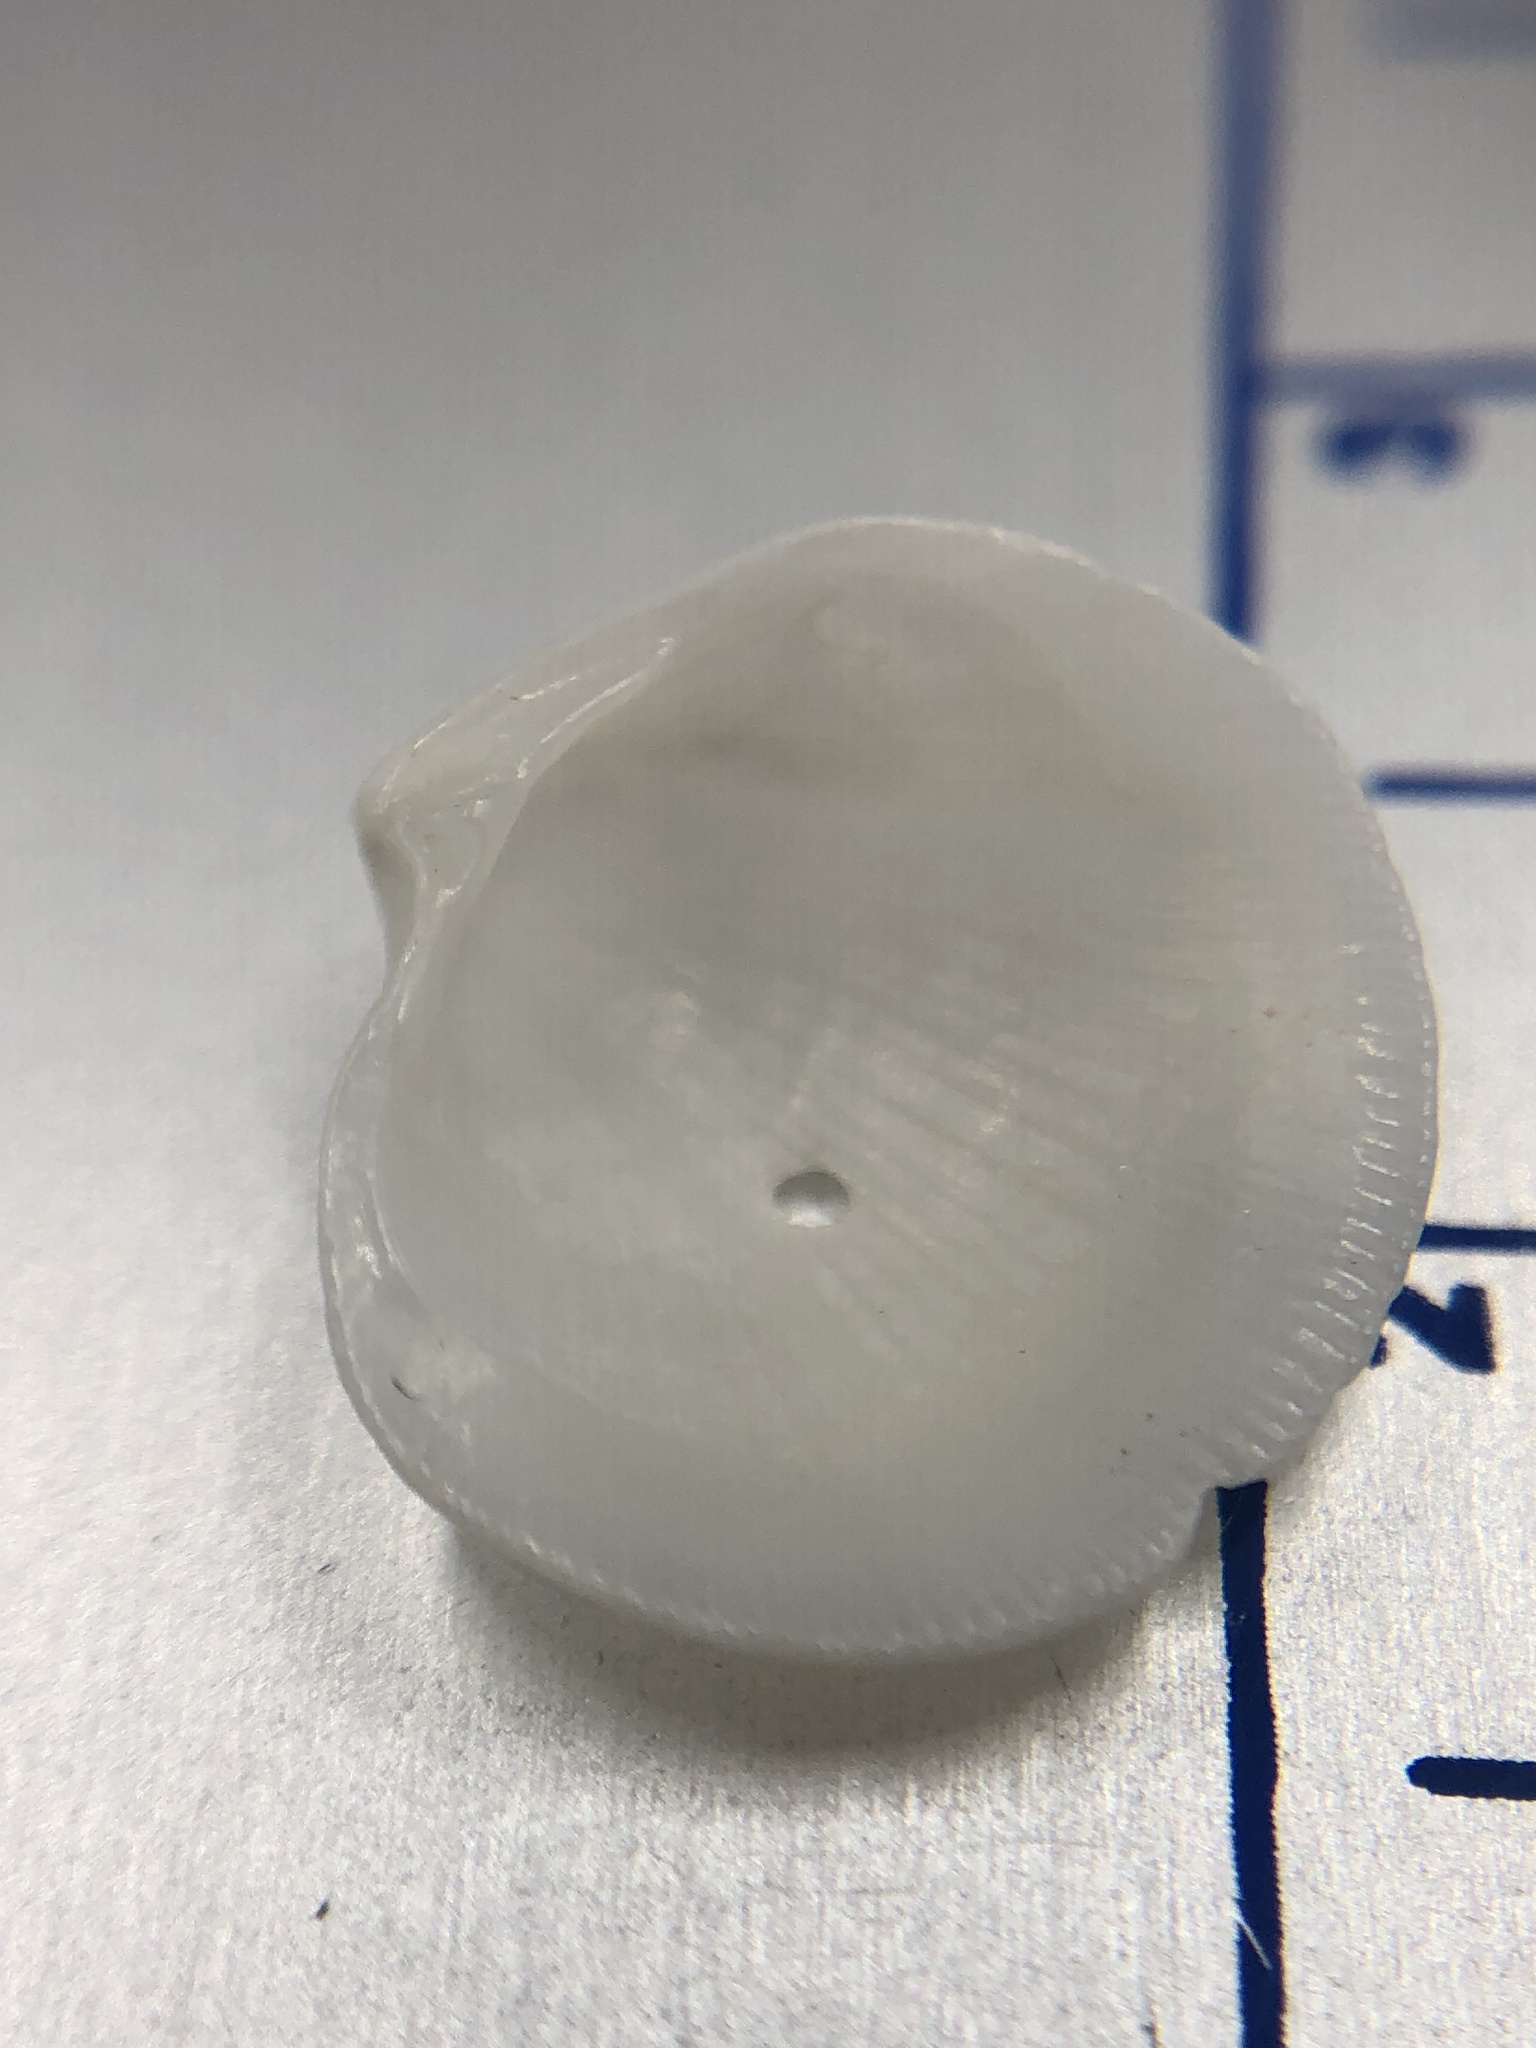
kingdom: Animalia
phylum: Mollusca
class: Bivalvia
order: Lucinida
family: Lucinidae
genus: Callucina
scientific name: Callucina keenae
